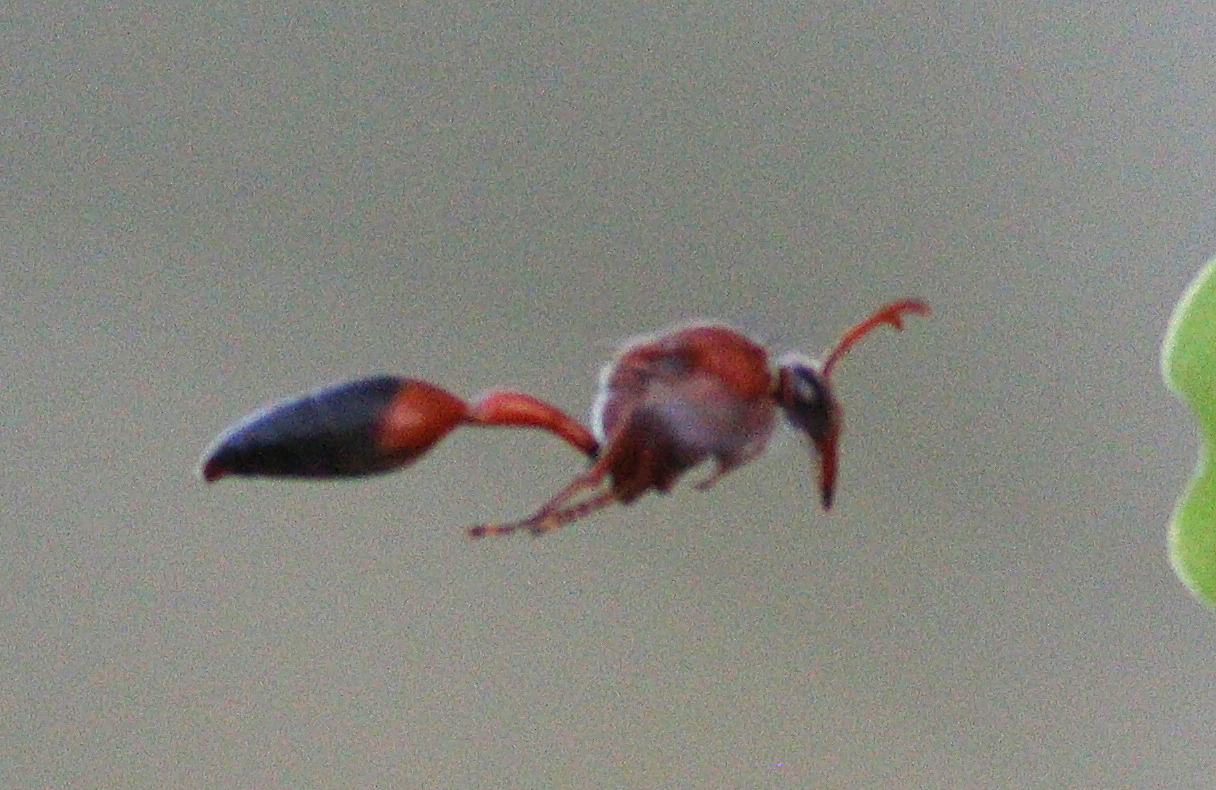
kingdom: Animalia
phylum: Arthropoda
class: Insecta
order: Hymenoptera
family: Eumenidae
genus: Delta
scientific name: Delta dimidiatipenne
